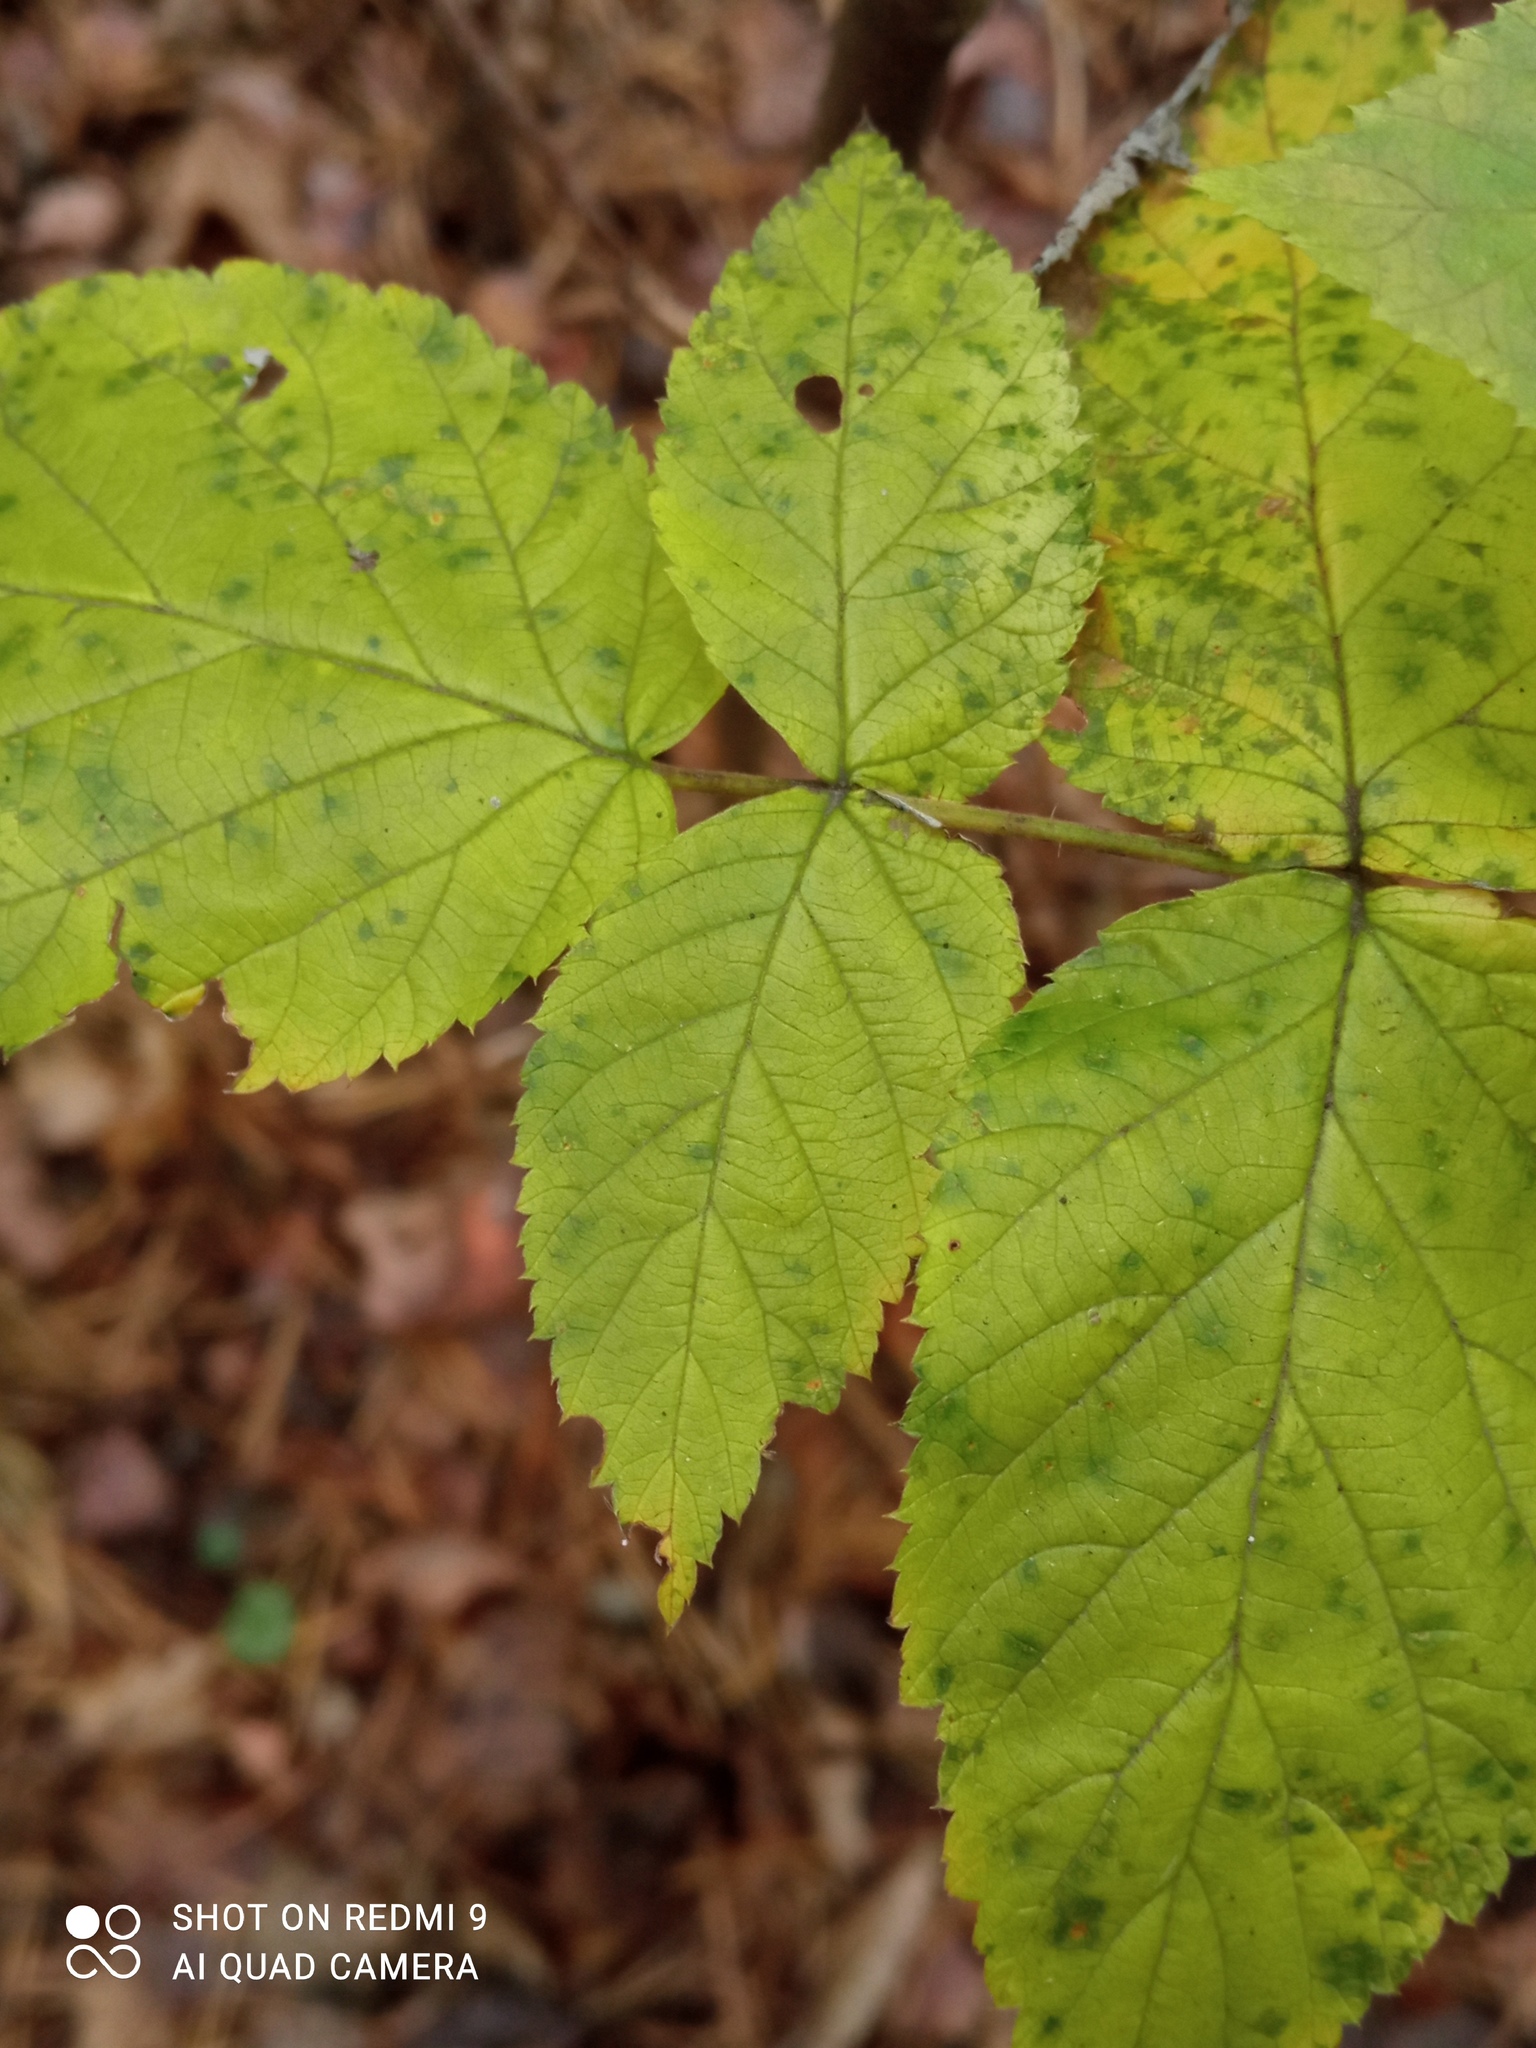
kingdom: Plantae
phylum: Tracheophyta
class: Magnoliopsida
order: Rosales
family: Rosaceae
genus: Rubus
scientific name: Rubus idaeus
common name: Raspberry
